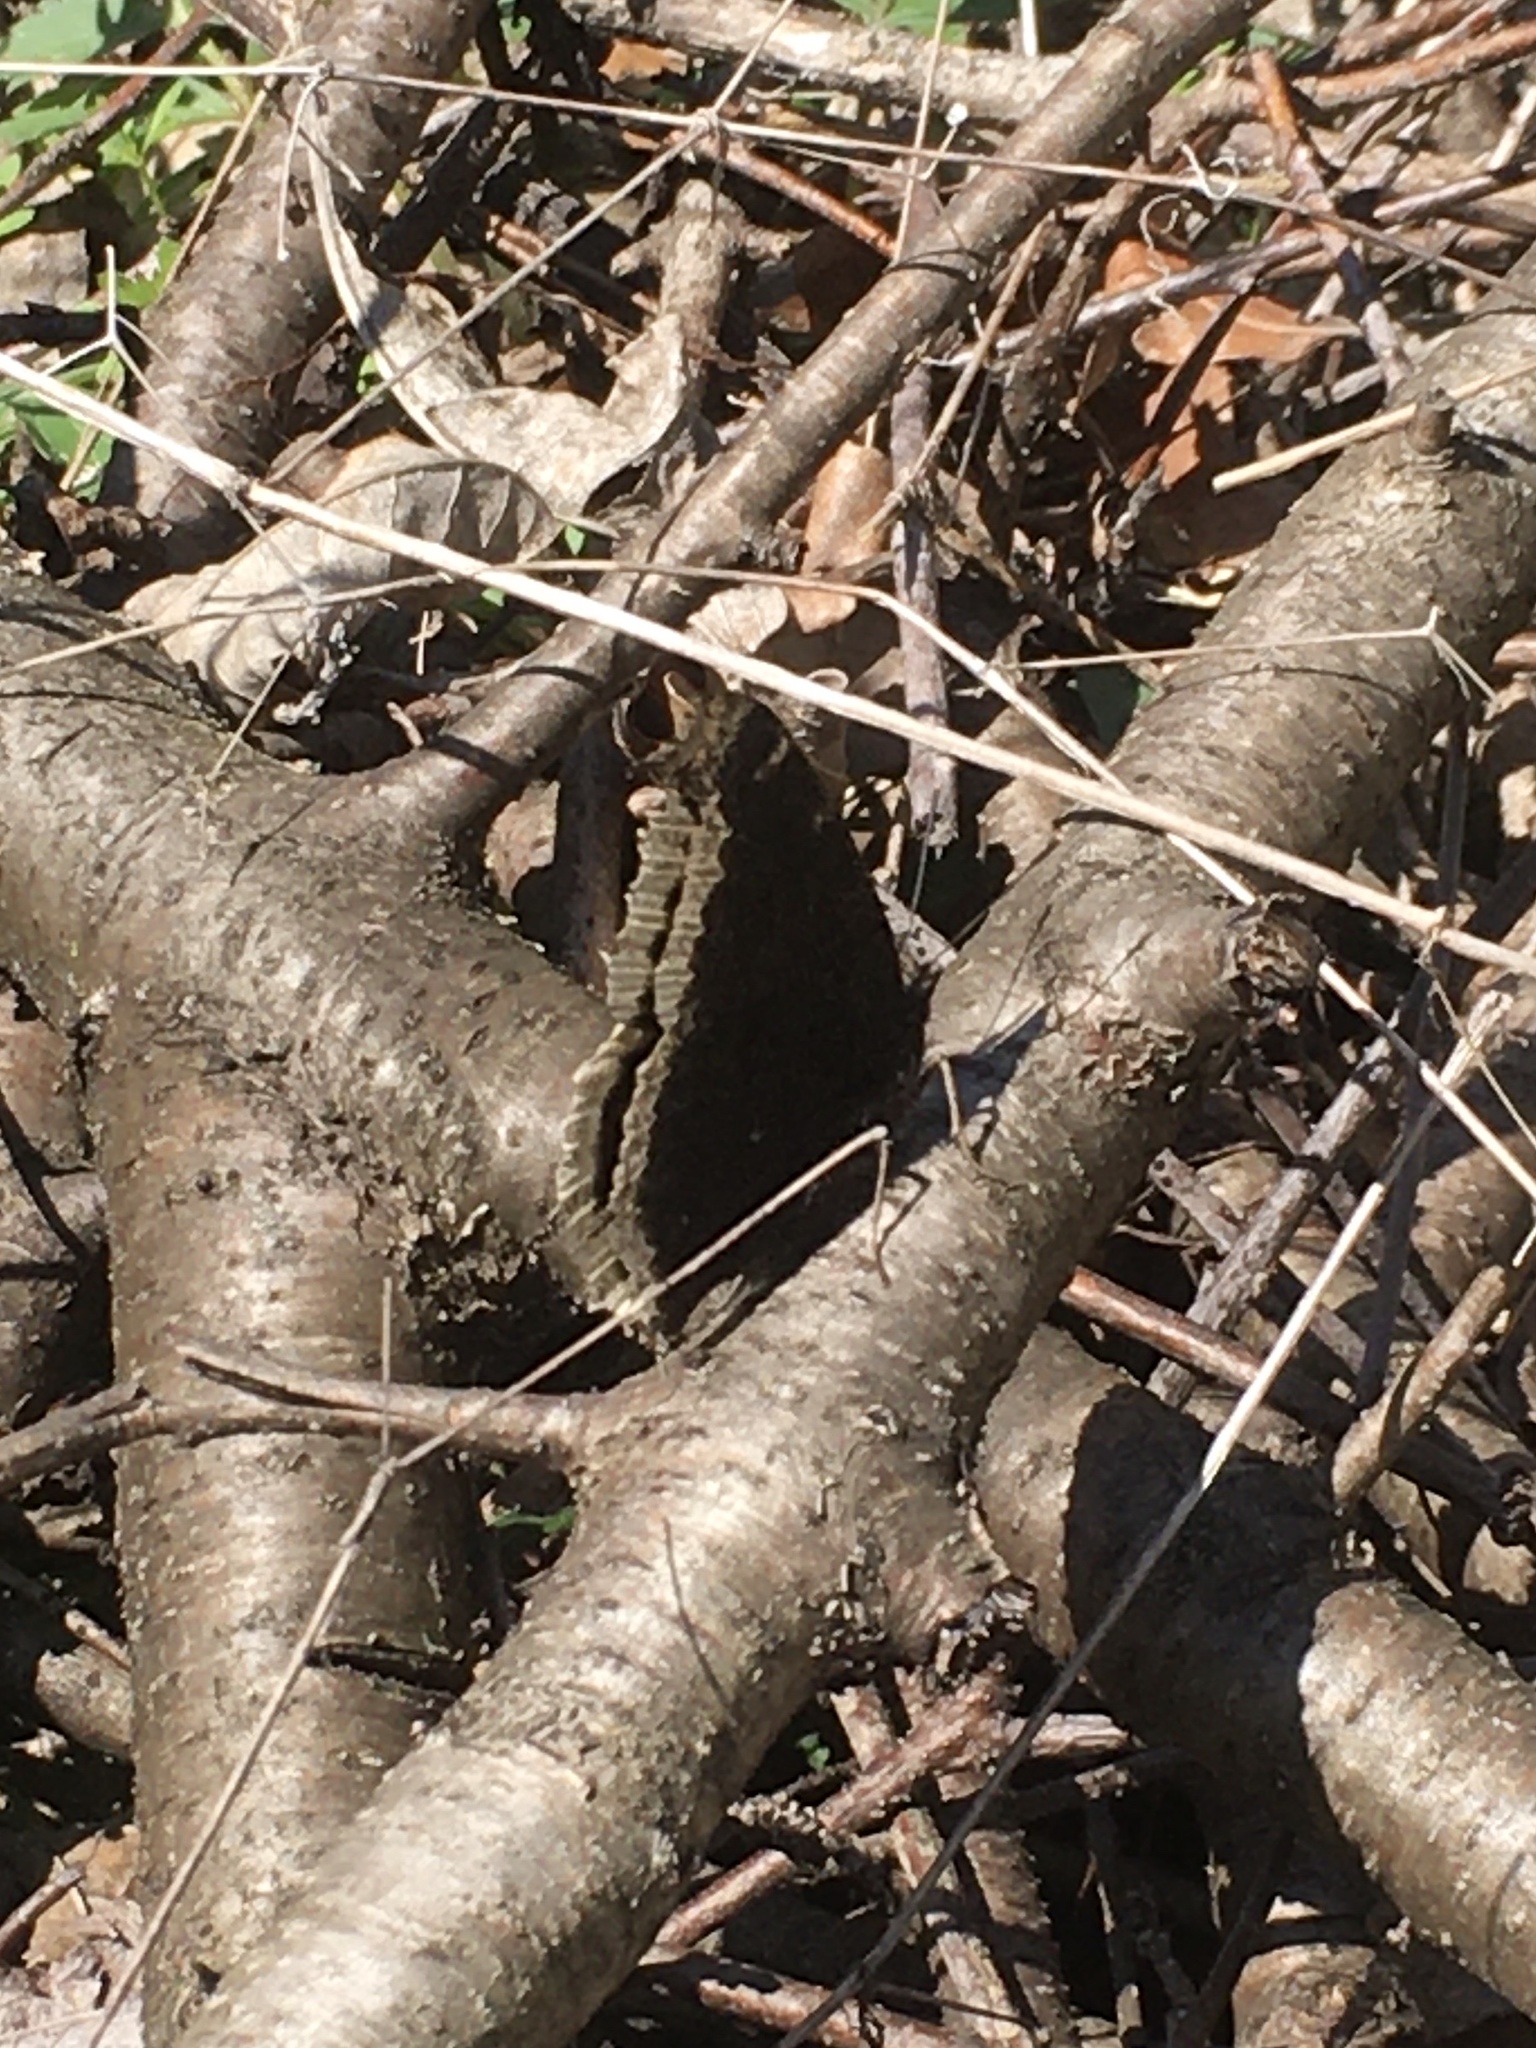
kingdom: Animalia
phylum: Arthropoda
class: Insecta
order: Lepidoptera
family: Nymphalidae
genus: Nymphalis
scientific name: Nymphalis antiopa
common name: Camberwell beauty
